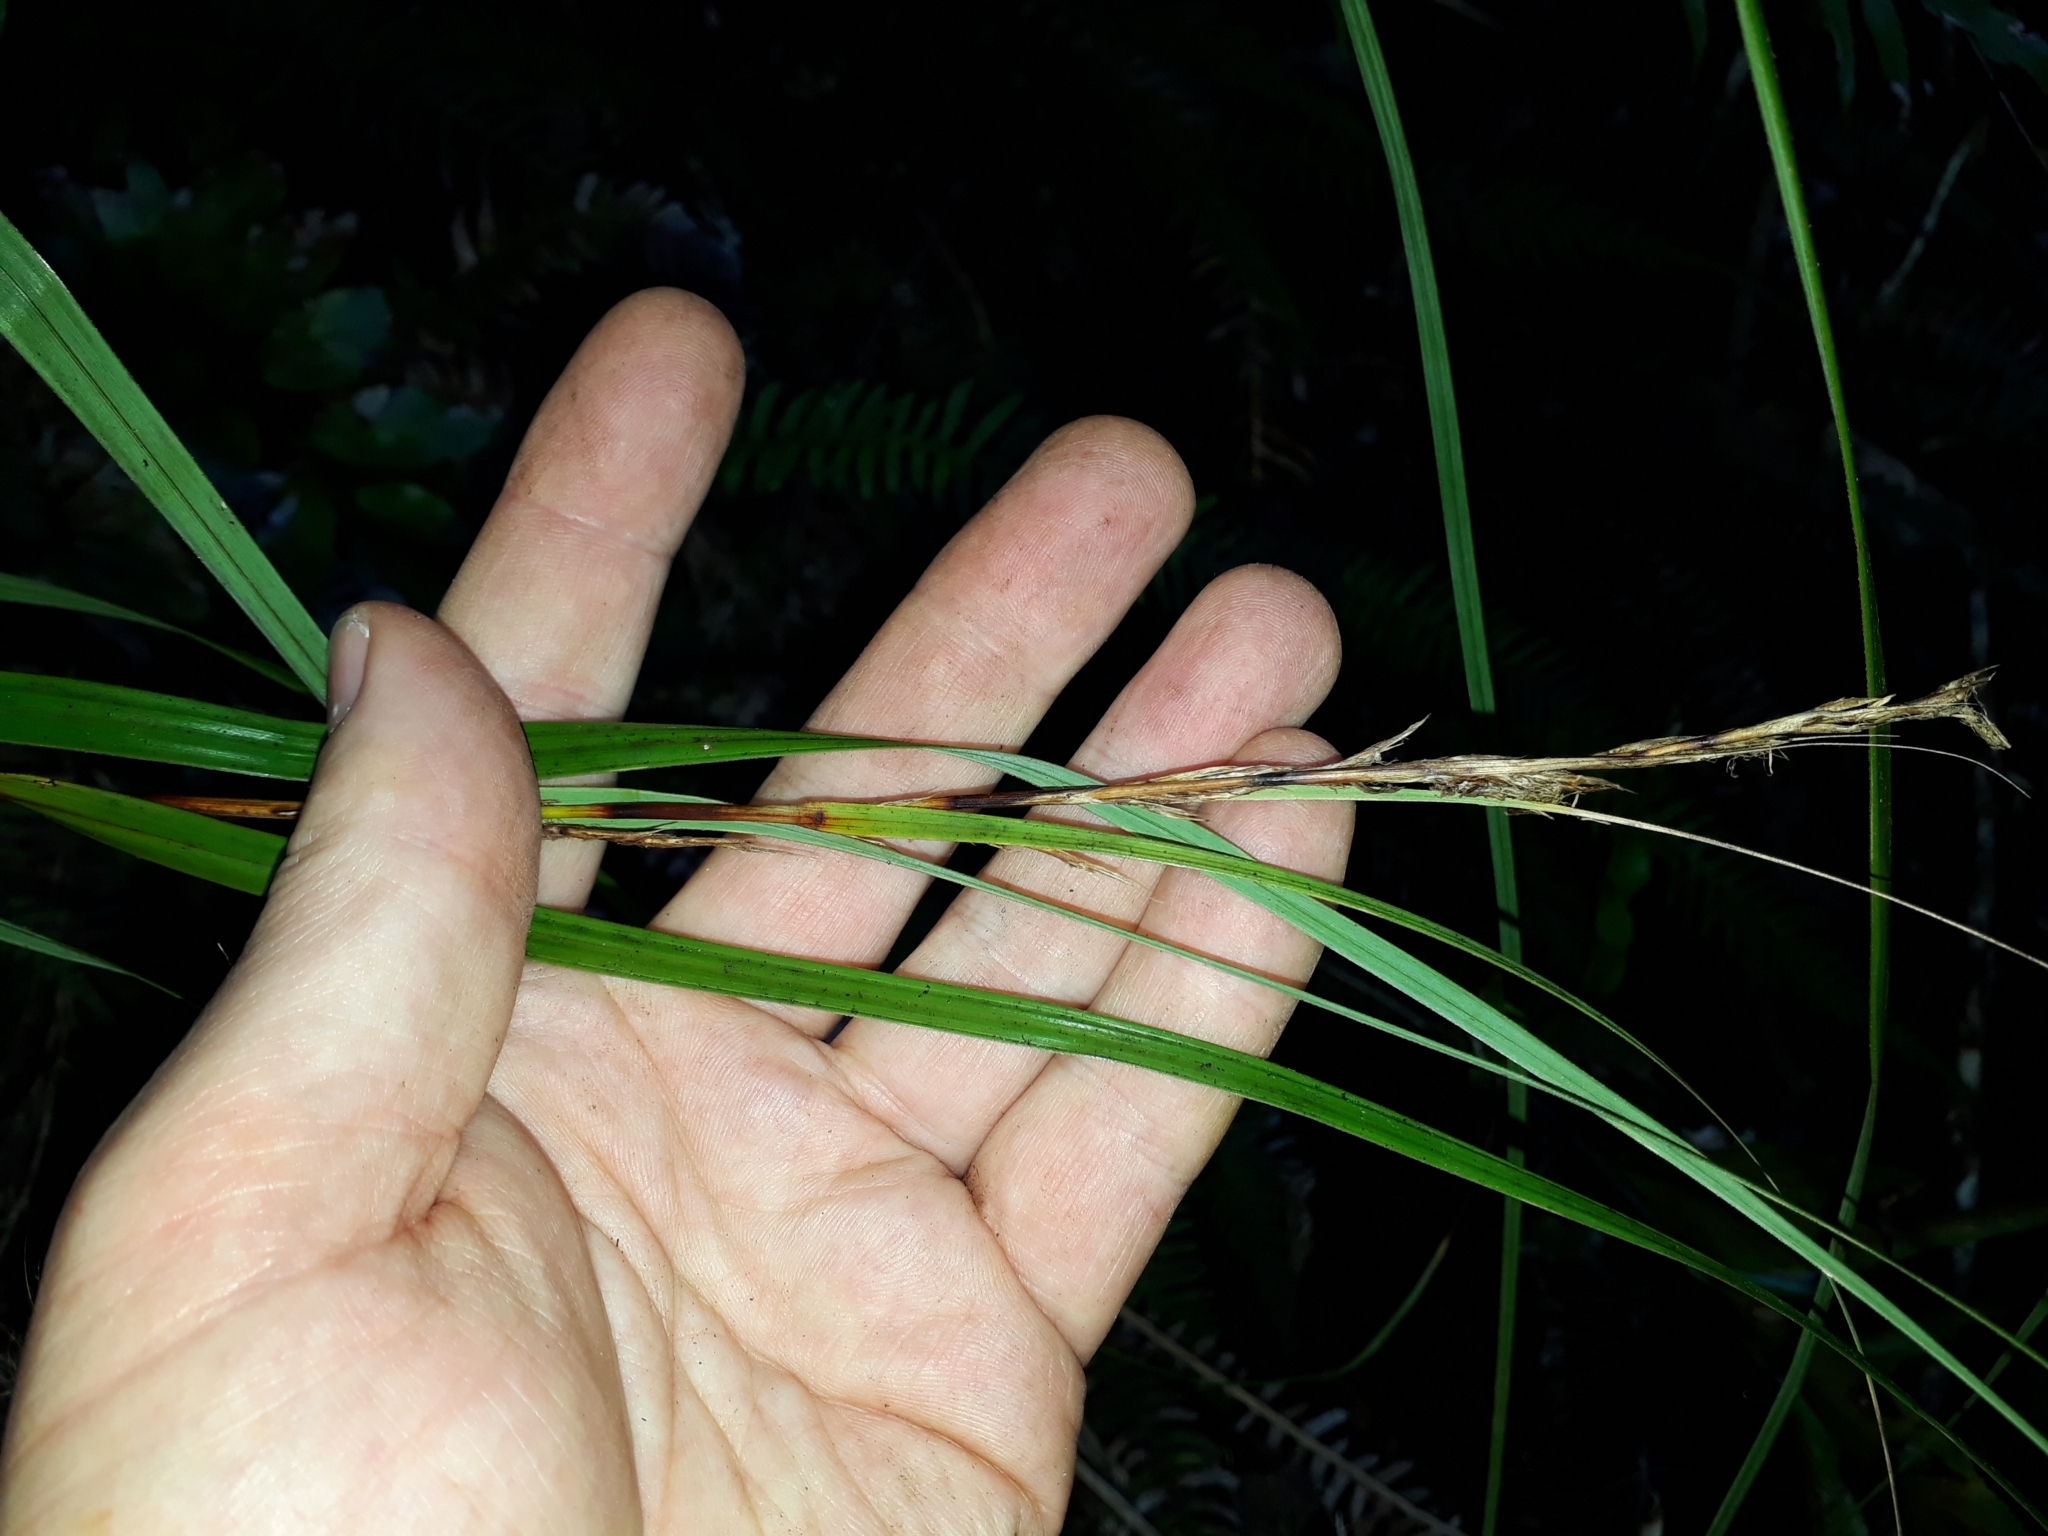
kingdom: Plantae
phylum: Tracheophyta
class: Liliopsida
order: Poales
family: Cyperaceae
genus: Gahnia
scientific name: Gahnia lacera
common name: Sawsedge
